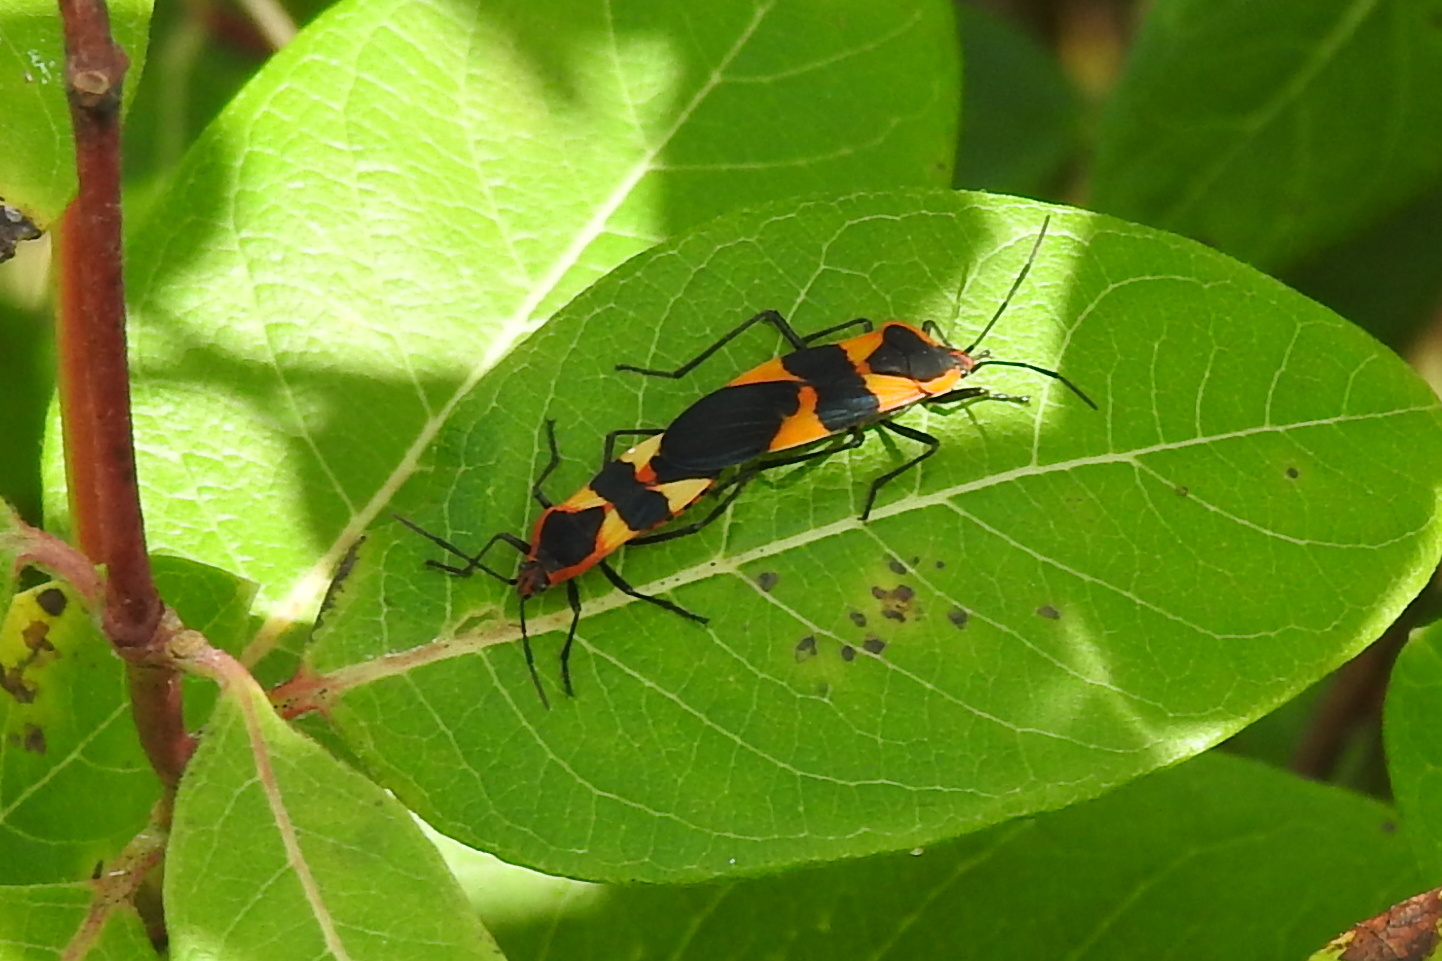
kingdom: Animalia
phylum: Arthropoda
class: Insecta
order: Hemiptera
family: Lygaeidae
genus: Oncopeltus
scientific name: Oncopeltus fasciatus
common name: Large milkweed bug
